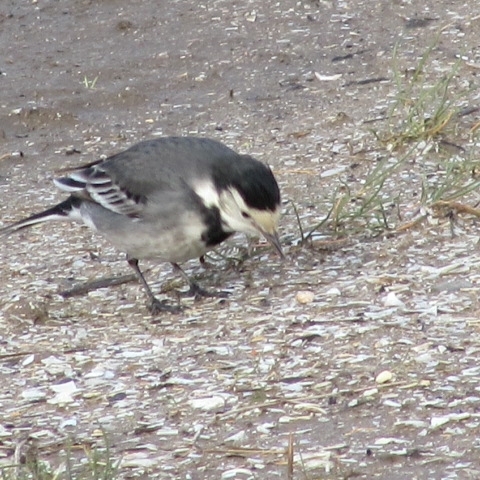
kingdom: Animalia
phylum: Chordata
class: Aves
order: Passeriformes
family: Motacillidae
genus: Motacilla
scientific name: Motacilla alba
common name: White wagtail
